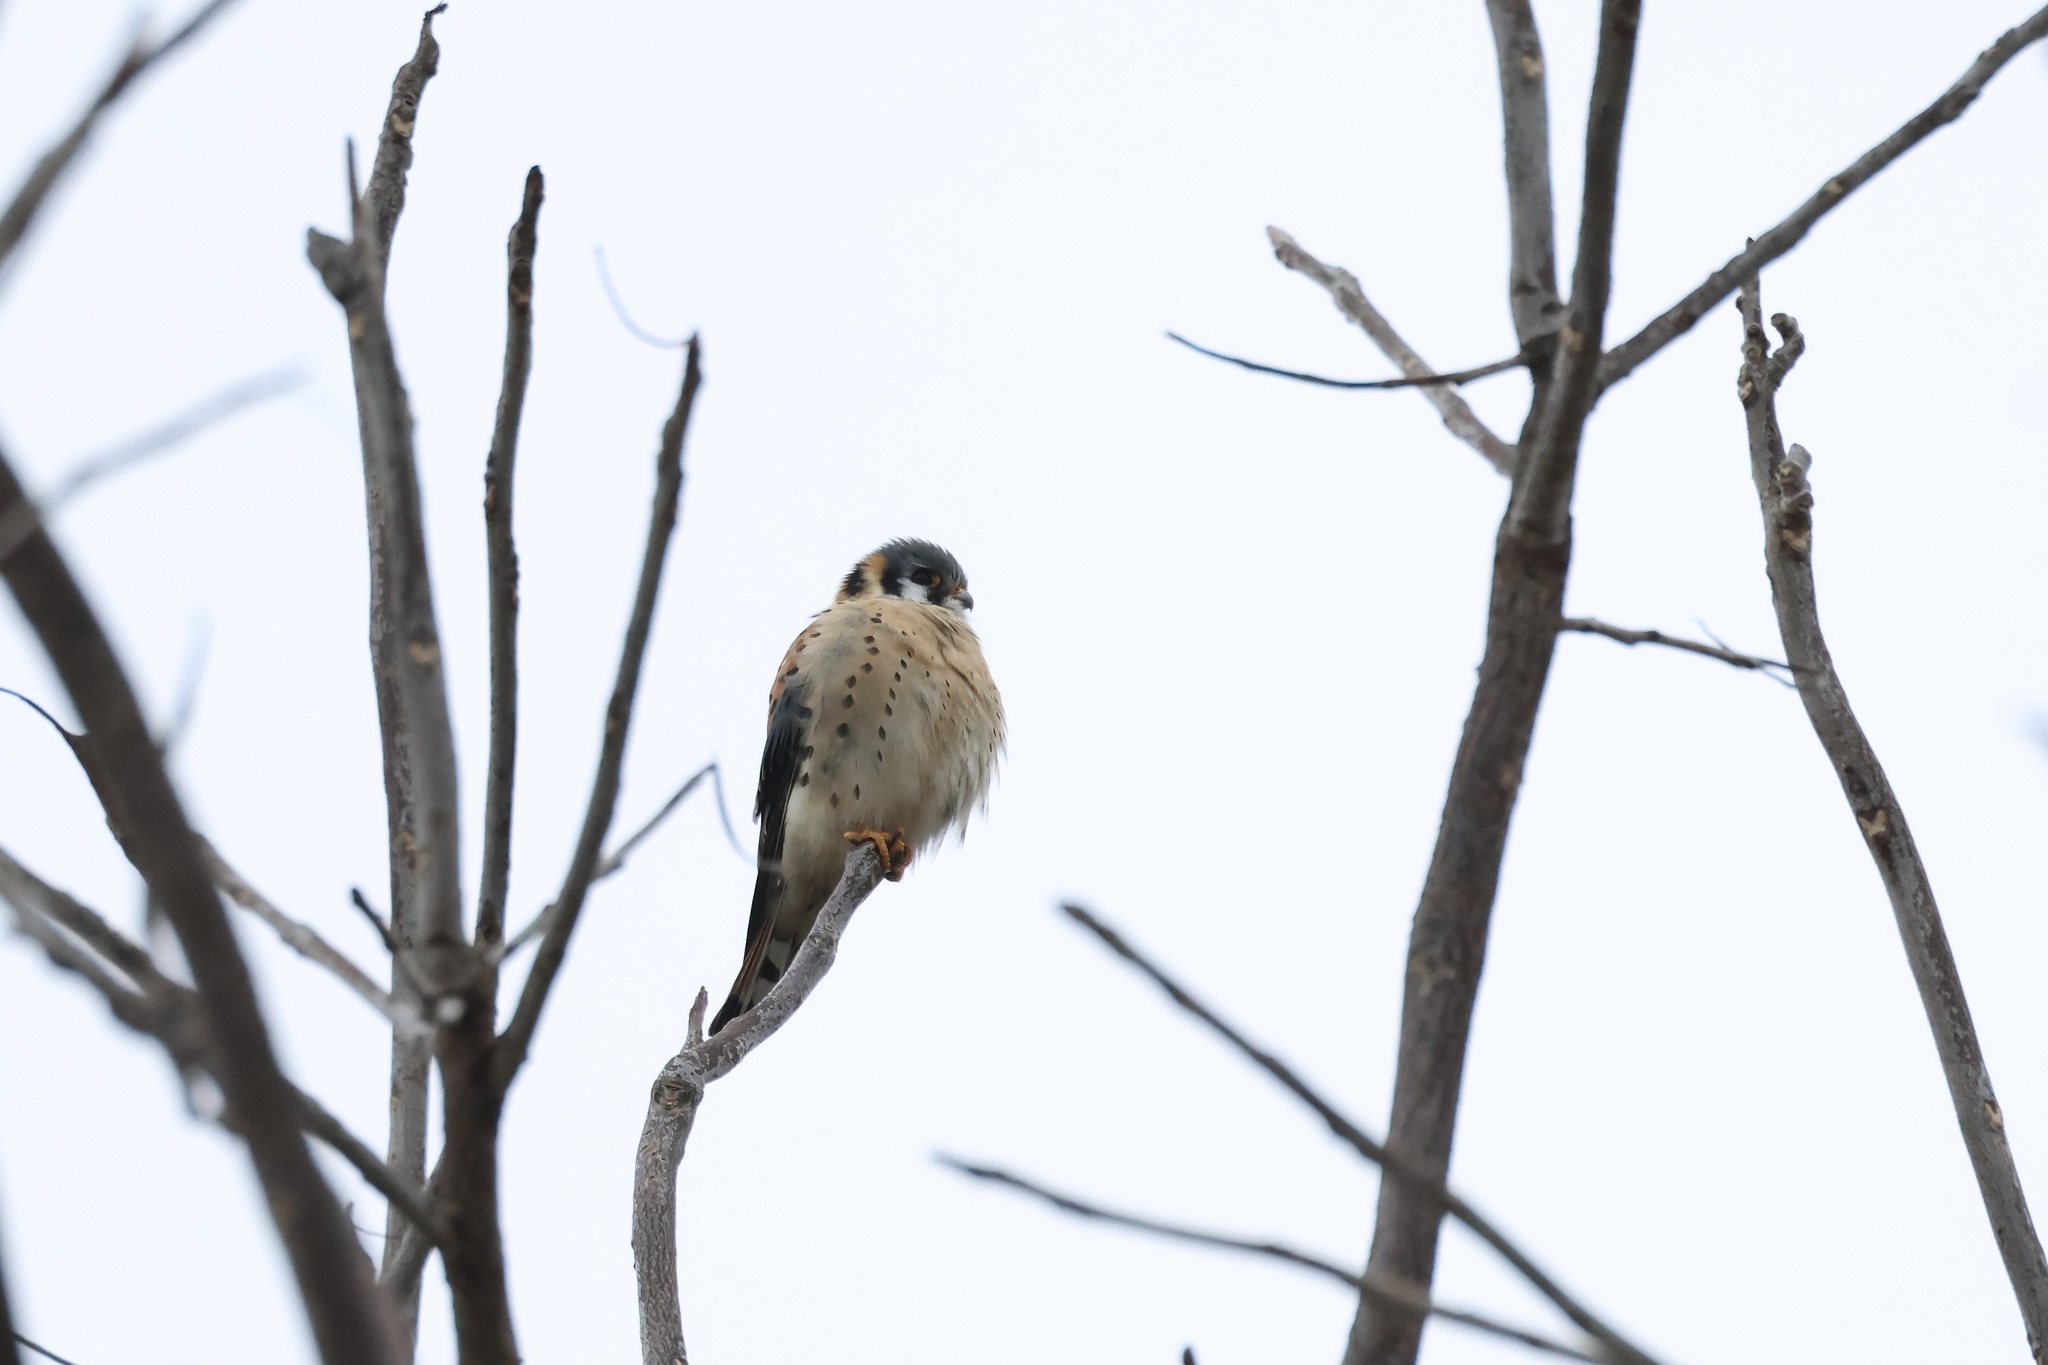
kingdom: Animalia
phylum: Chordata
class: Aves
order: Falconiformes
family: Falconidae
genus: Falco
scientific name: Falco sparverius
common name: American kestrel
